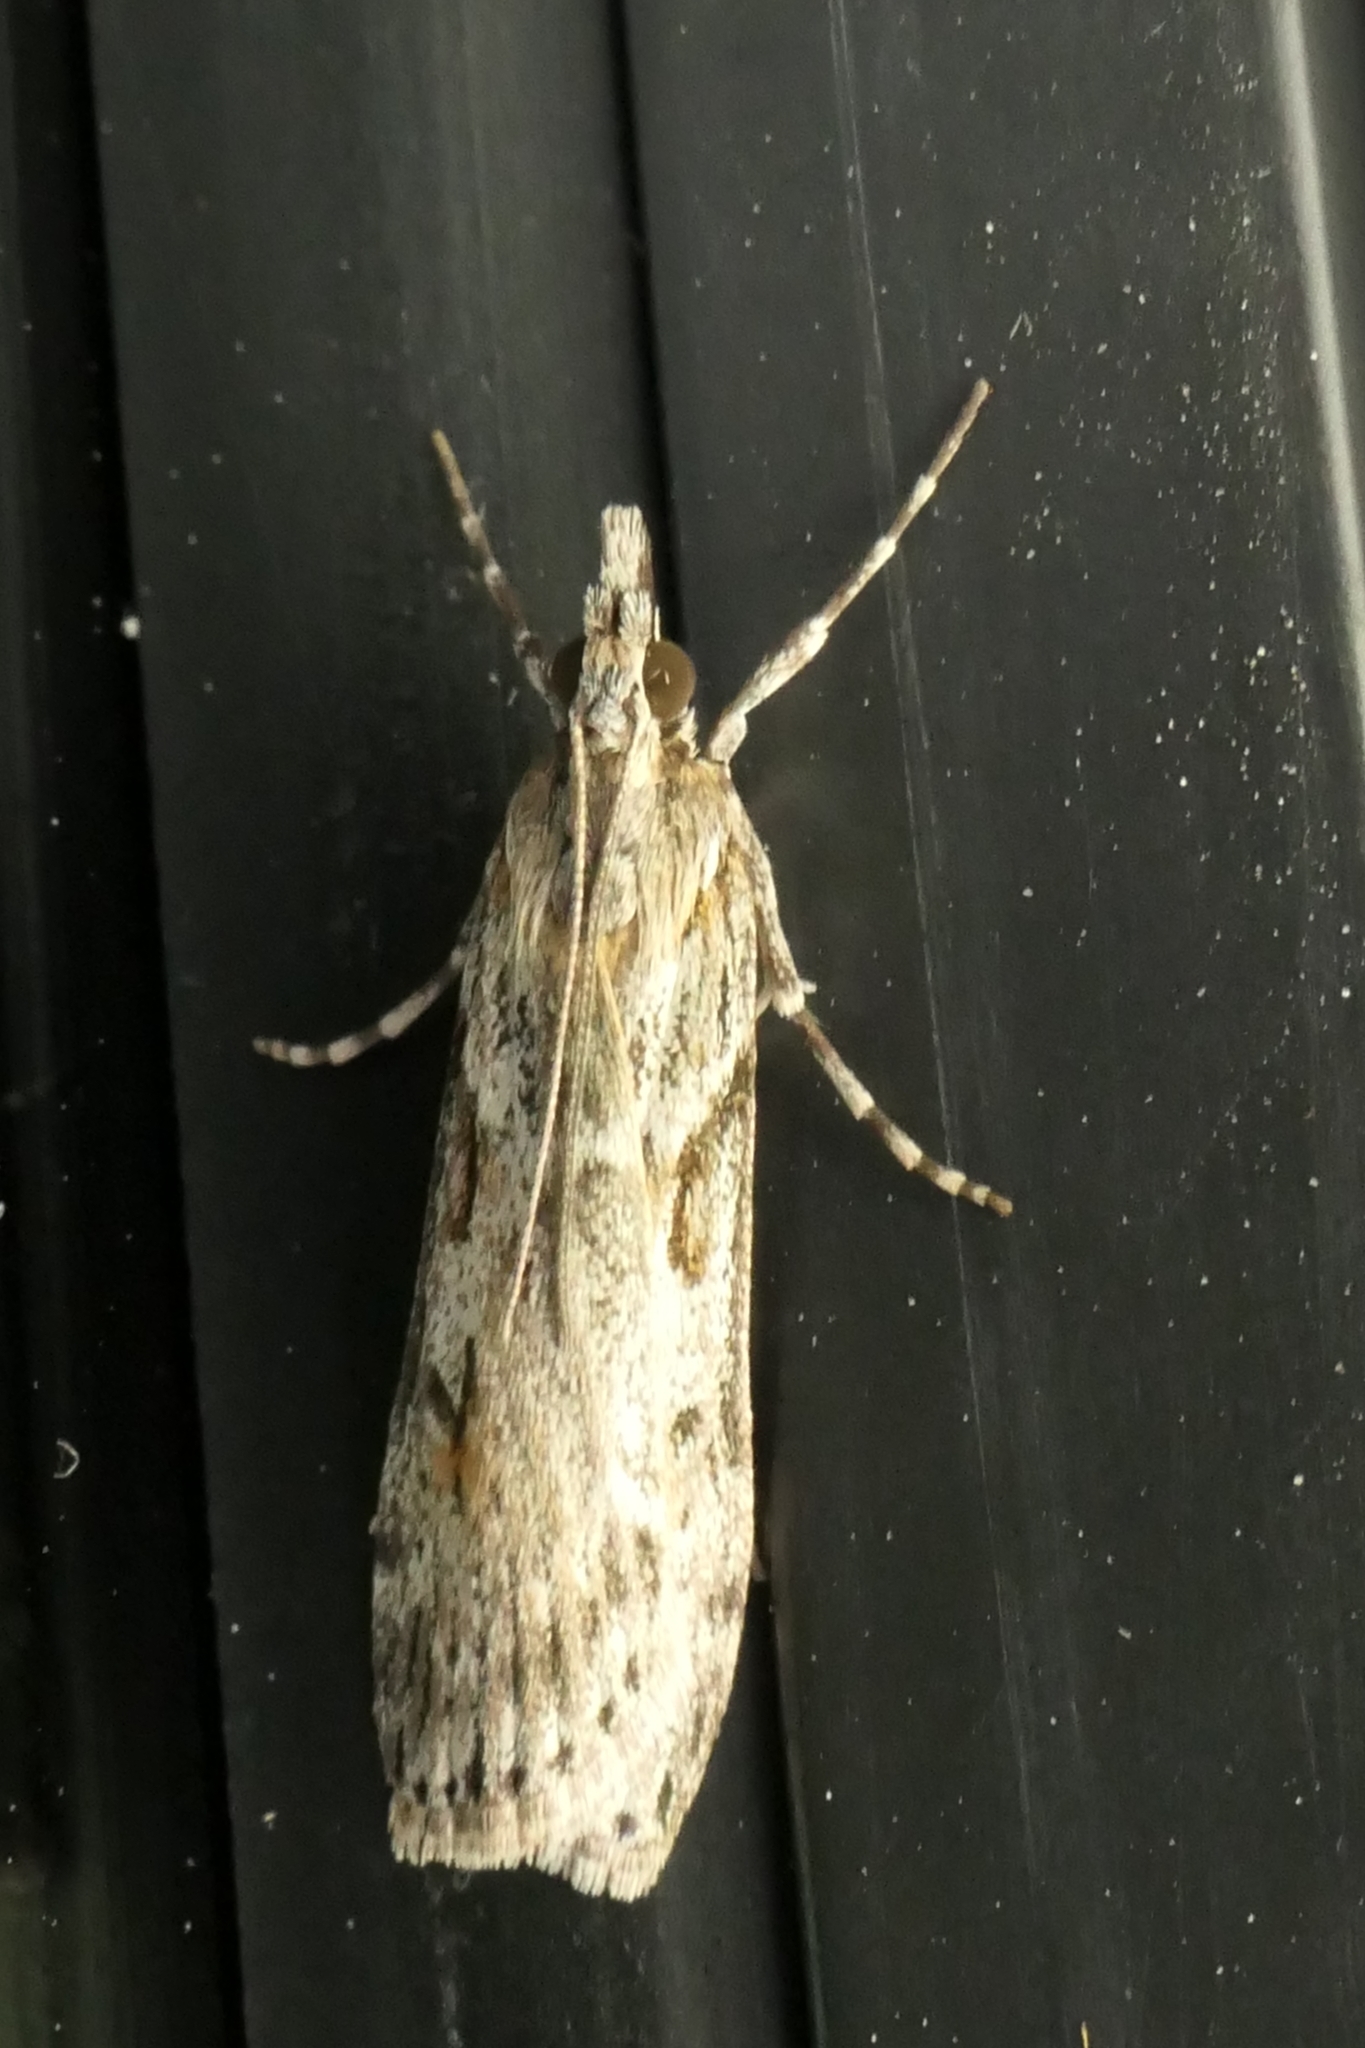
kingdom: Animalia
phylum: Arthropoda
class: Insecta
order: Lepidoptera
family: Crambidae
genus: Scoparia
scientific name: Scoparia halopis
